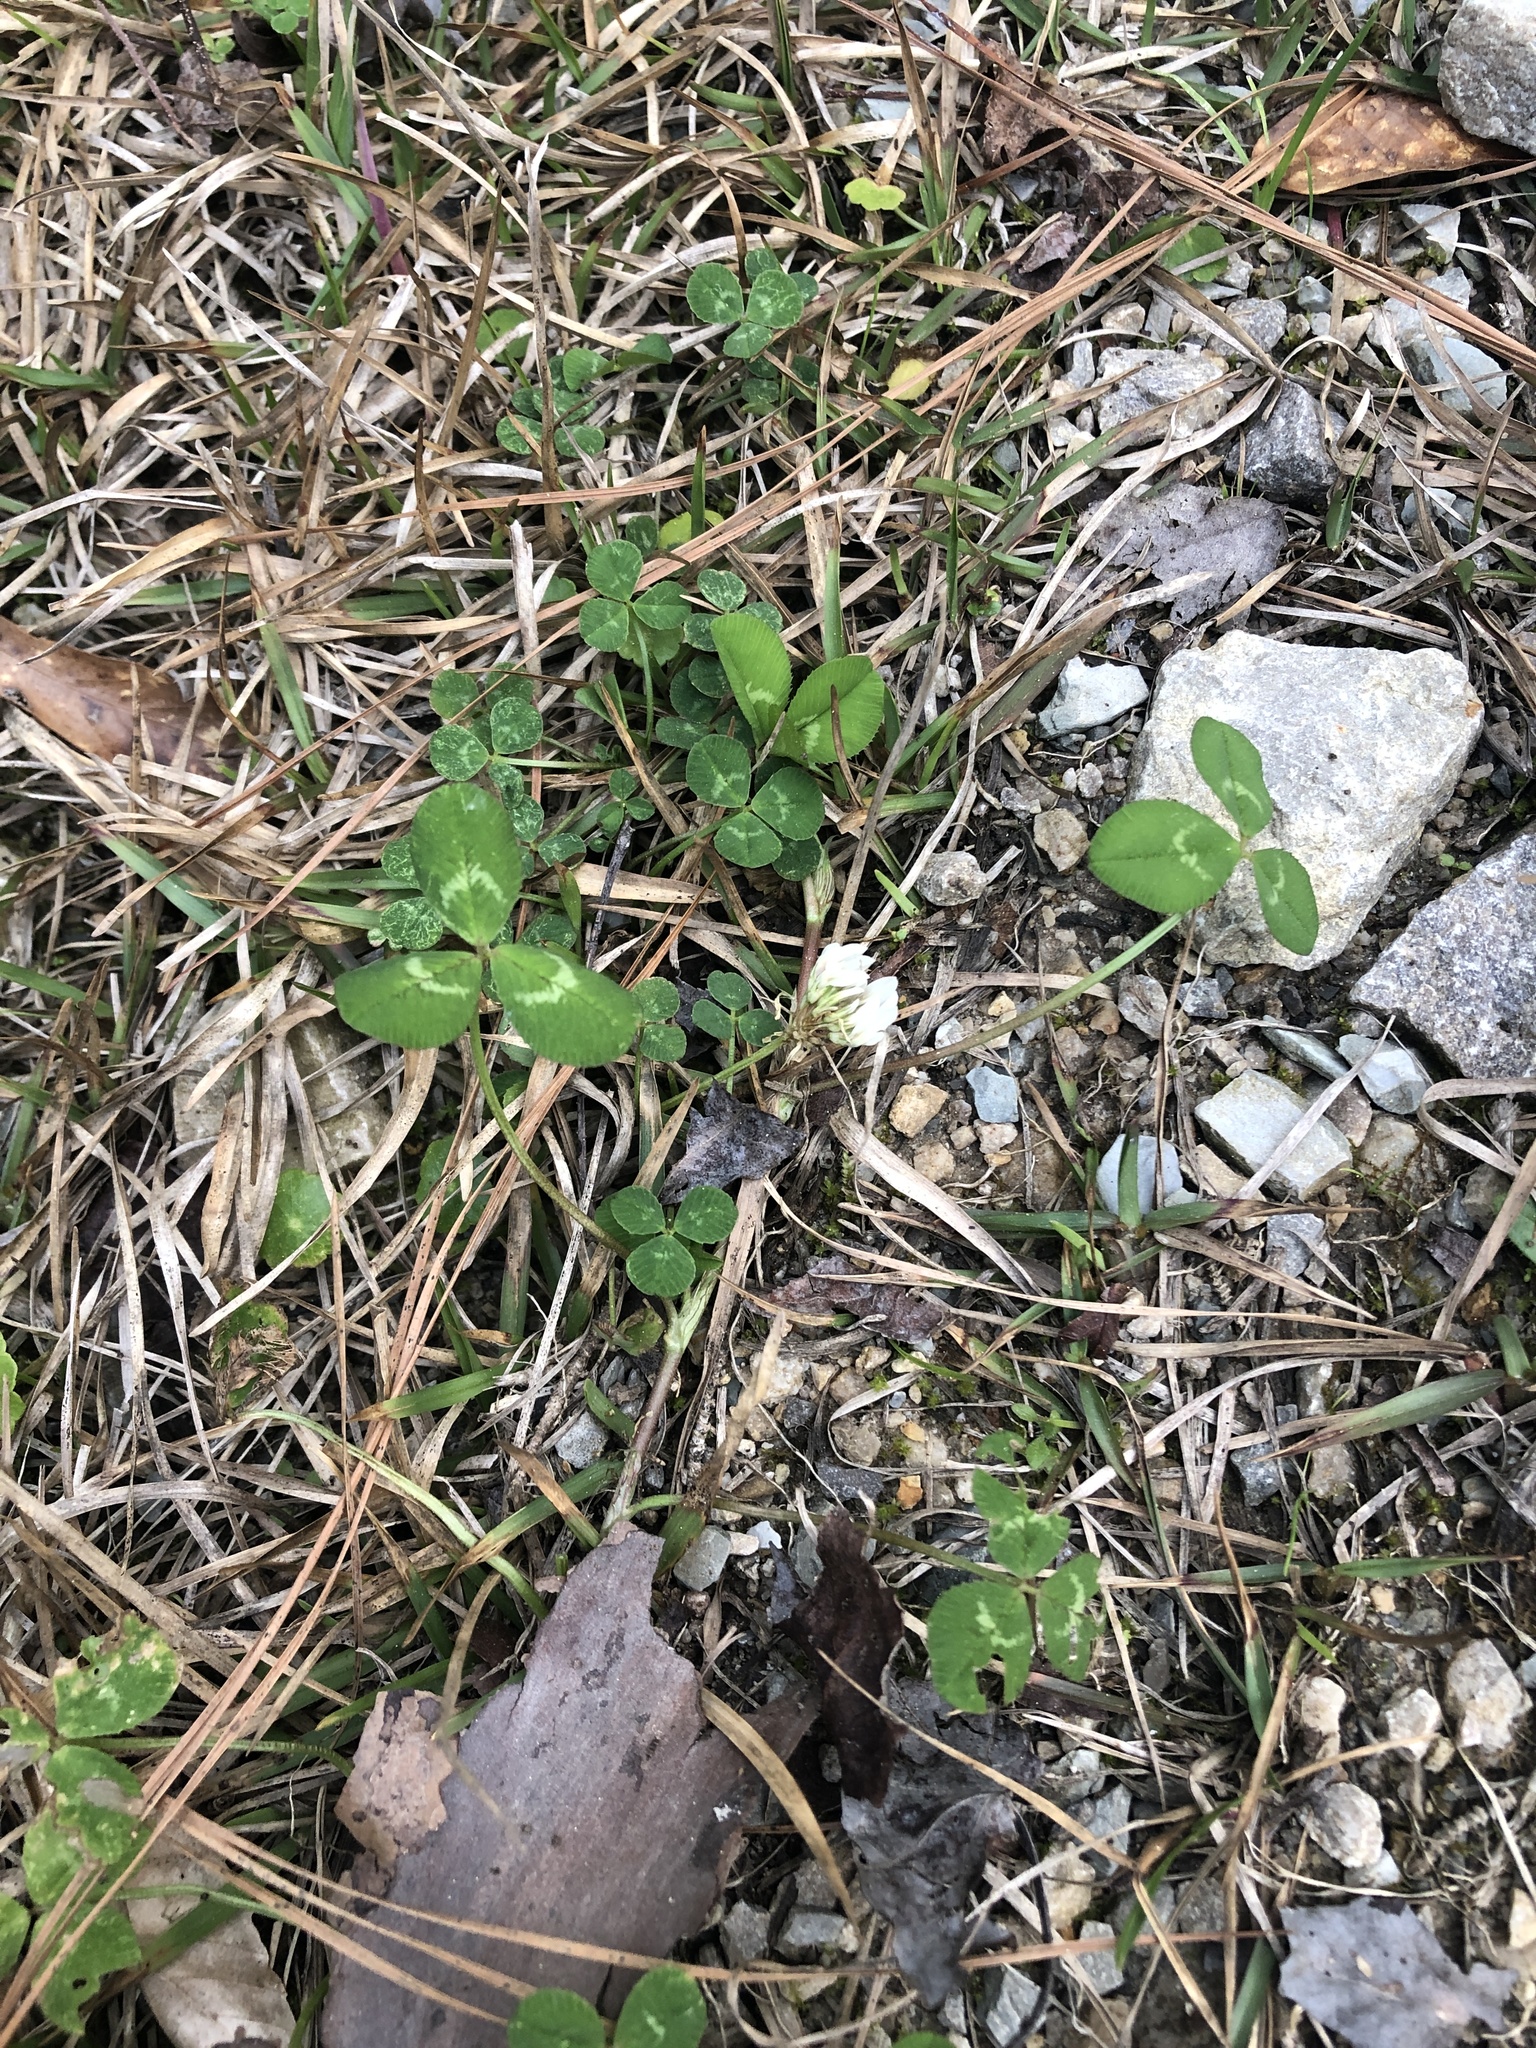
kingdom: Plantae
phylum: Tracheophyta
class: Magnoliopsida
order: Fabales
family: Fabaceae
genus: Trifolium
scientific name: Trifolium repens
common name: White clover
